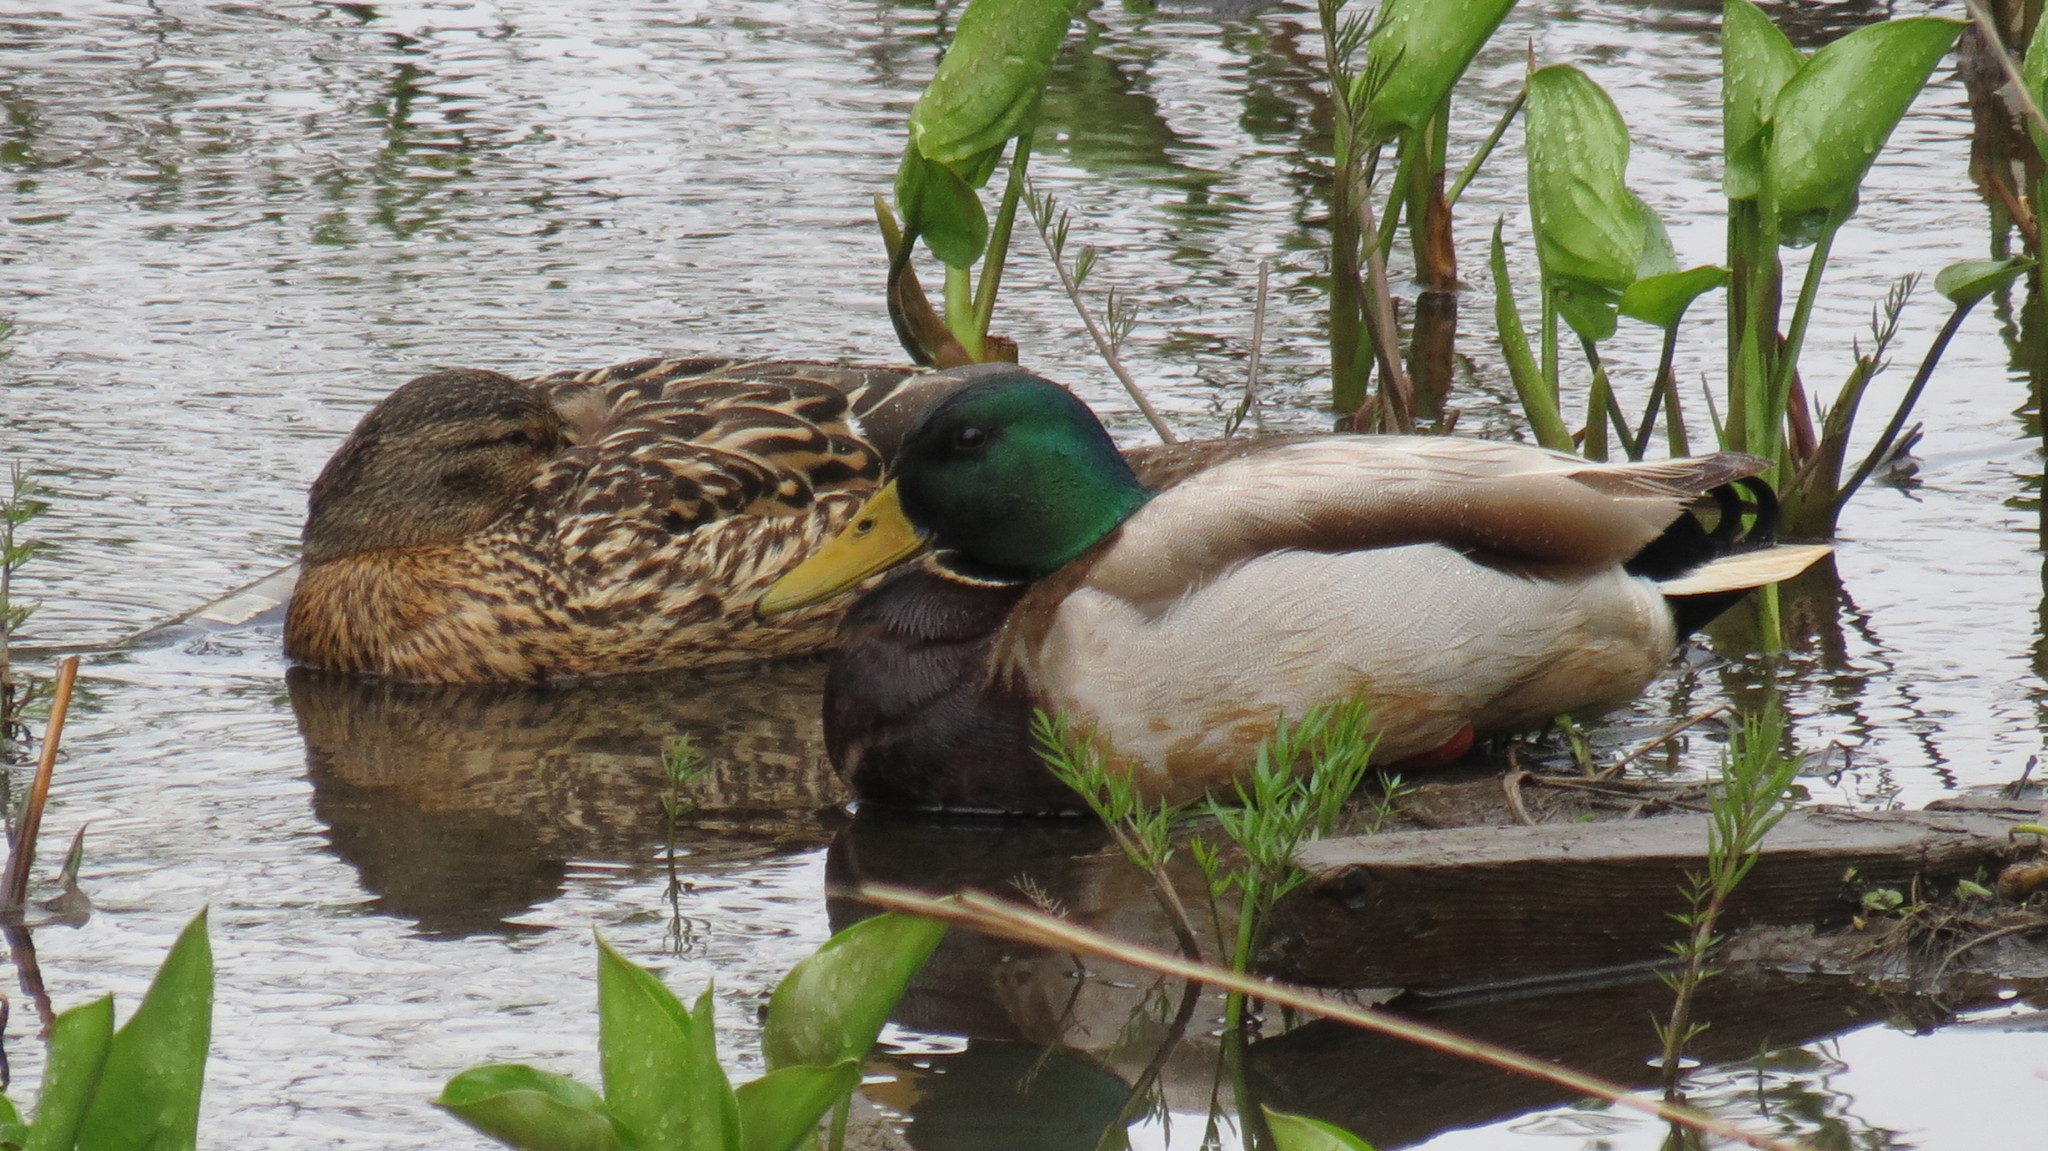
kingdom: Animalia
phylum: Chordata
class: Aves
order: Anseriformes
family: Anatidae
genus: Anas
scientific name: Anas platyrhynchos
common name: Mallard
